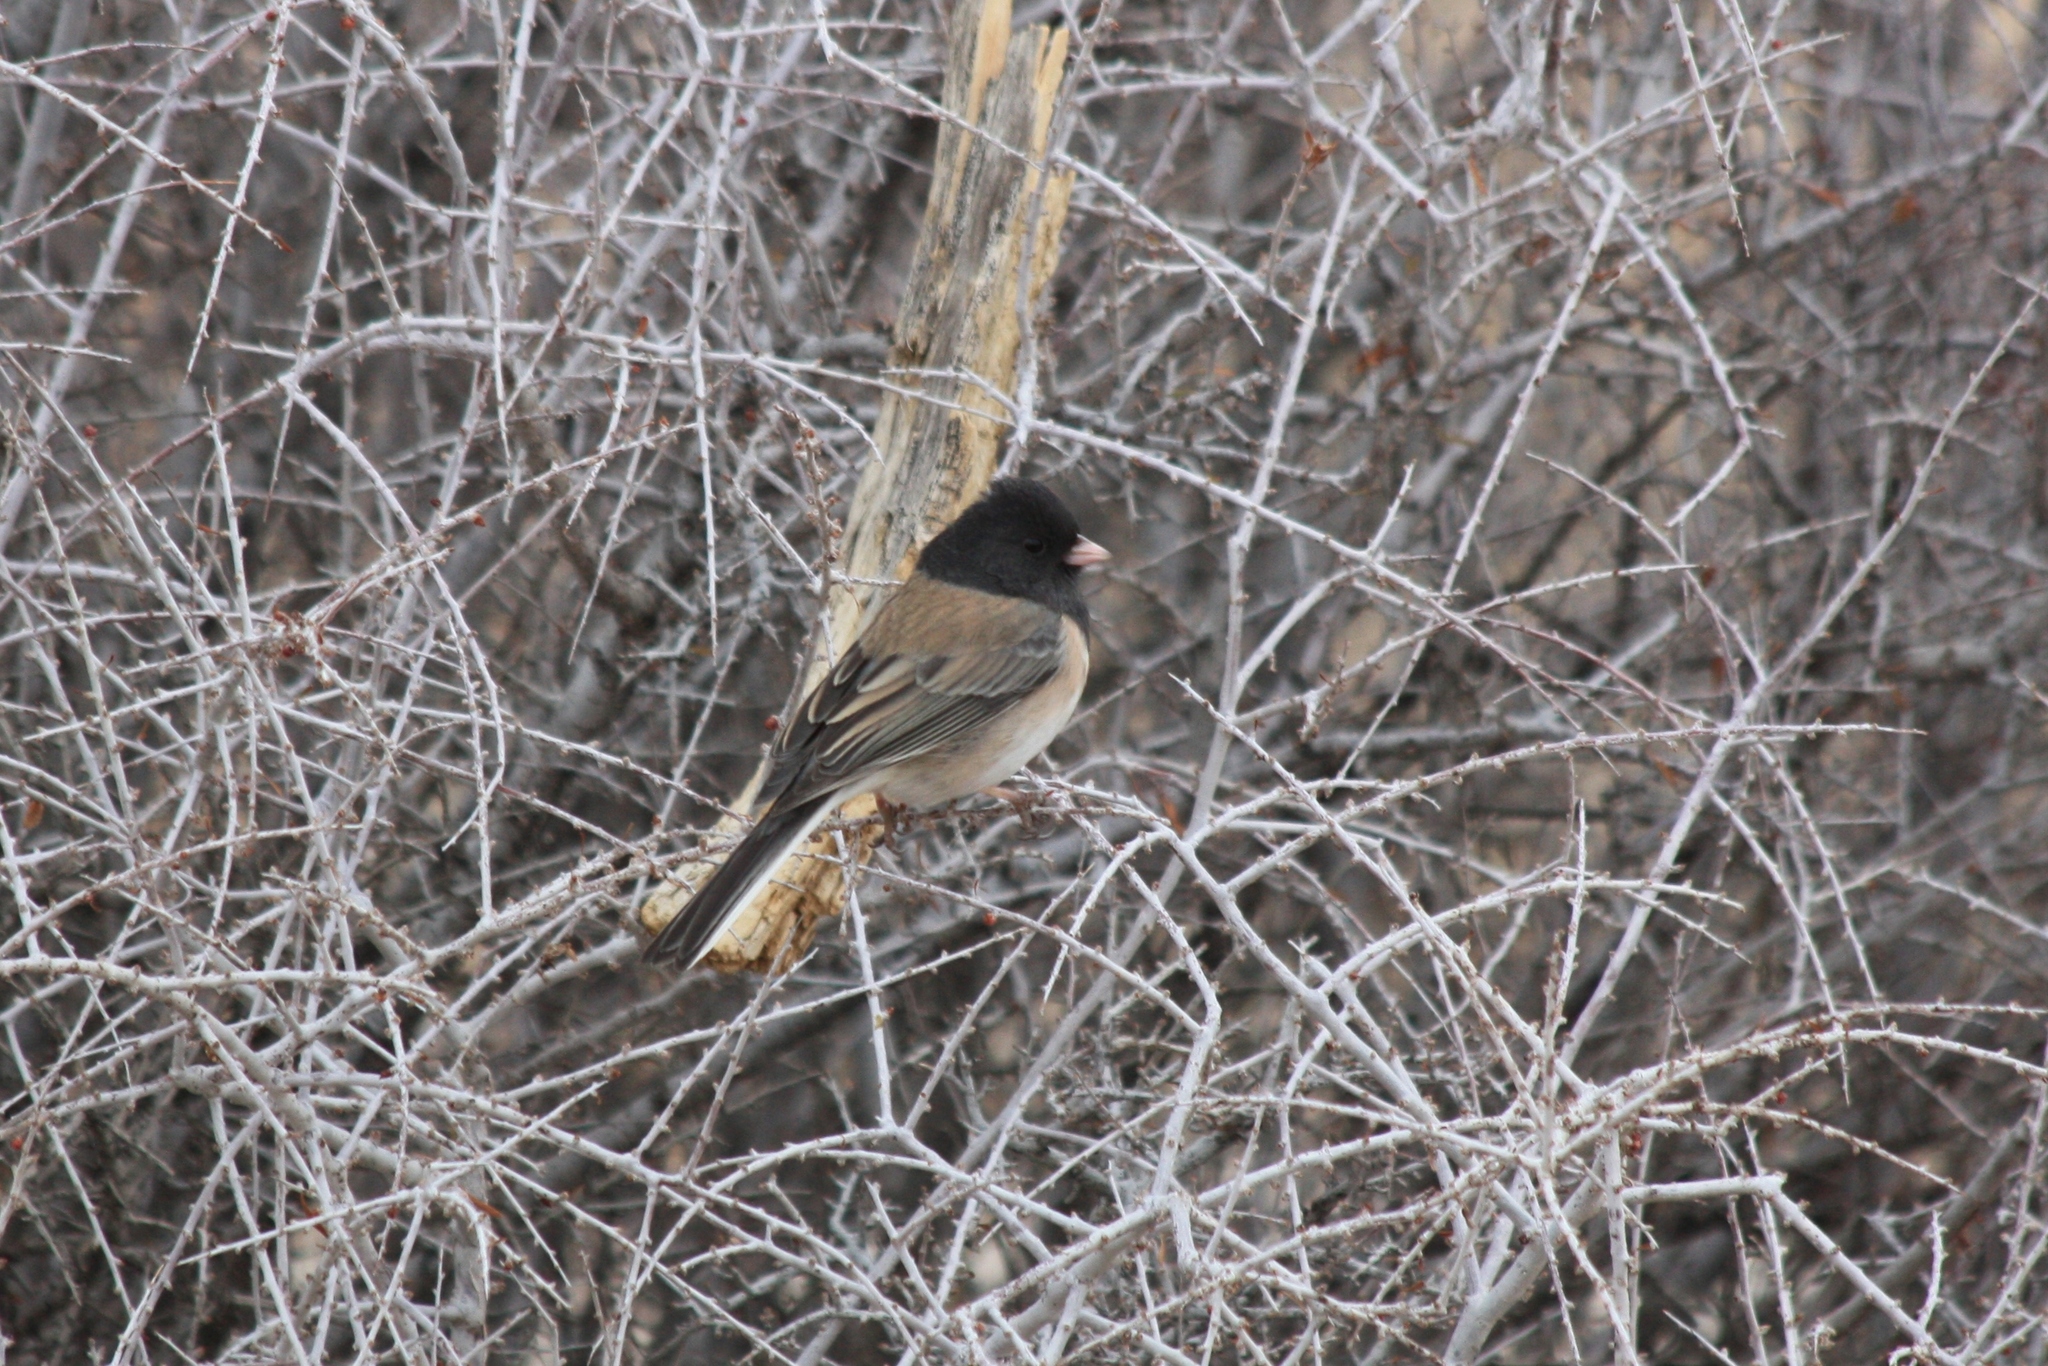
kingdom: Animalia
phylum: Chordata
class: Aves
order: Passeriformes
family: Passerellidae
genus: Junco
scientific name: Junco hyemalis
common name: Dark-eyed junco
